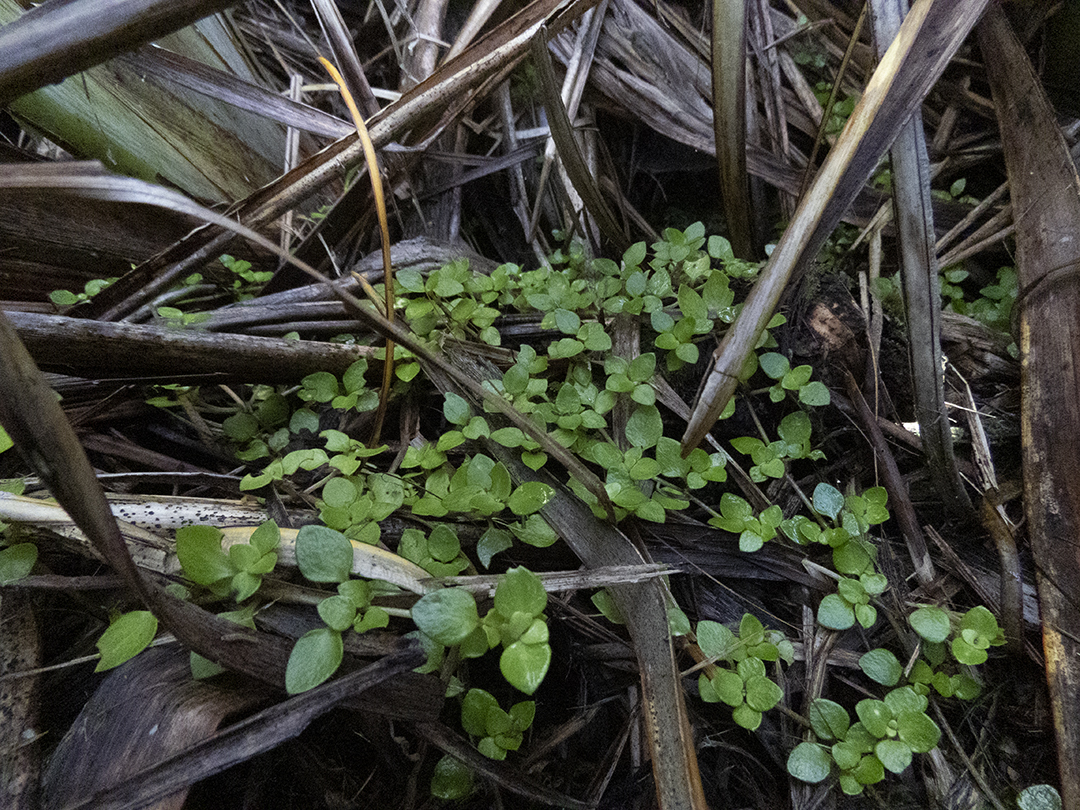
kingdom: Plantae
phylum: Tracheophyta
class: Magnoliopsida
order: Gentianales
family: Rubiaceae
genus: Nertera
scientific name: Nertera granadensis
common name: Beadplant
